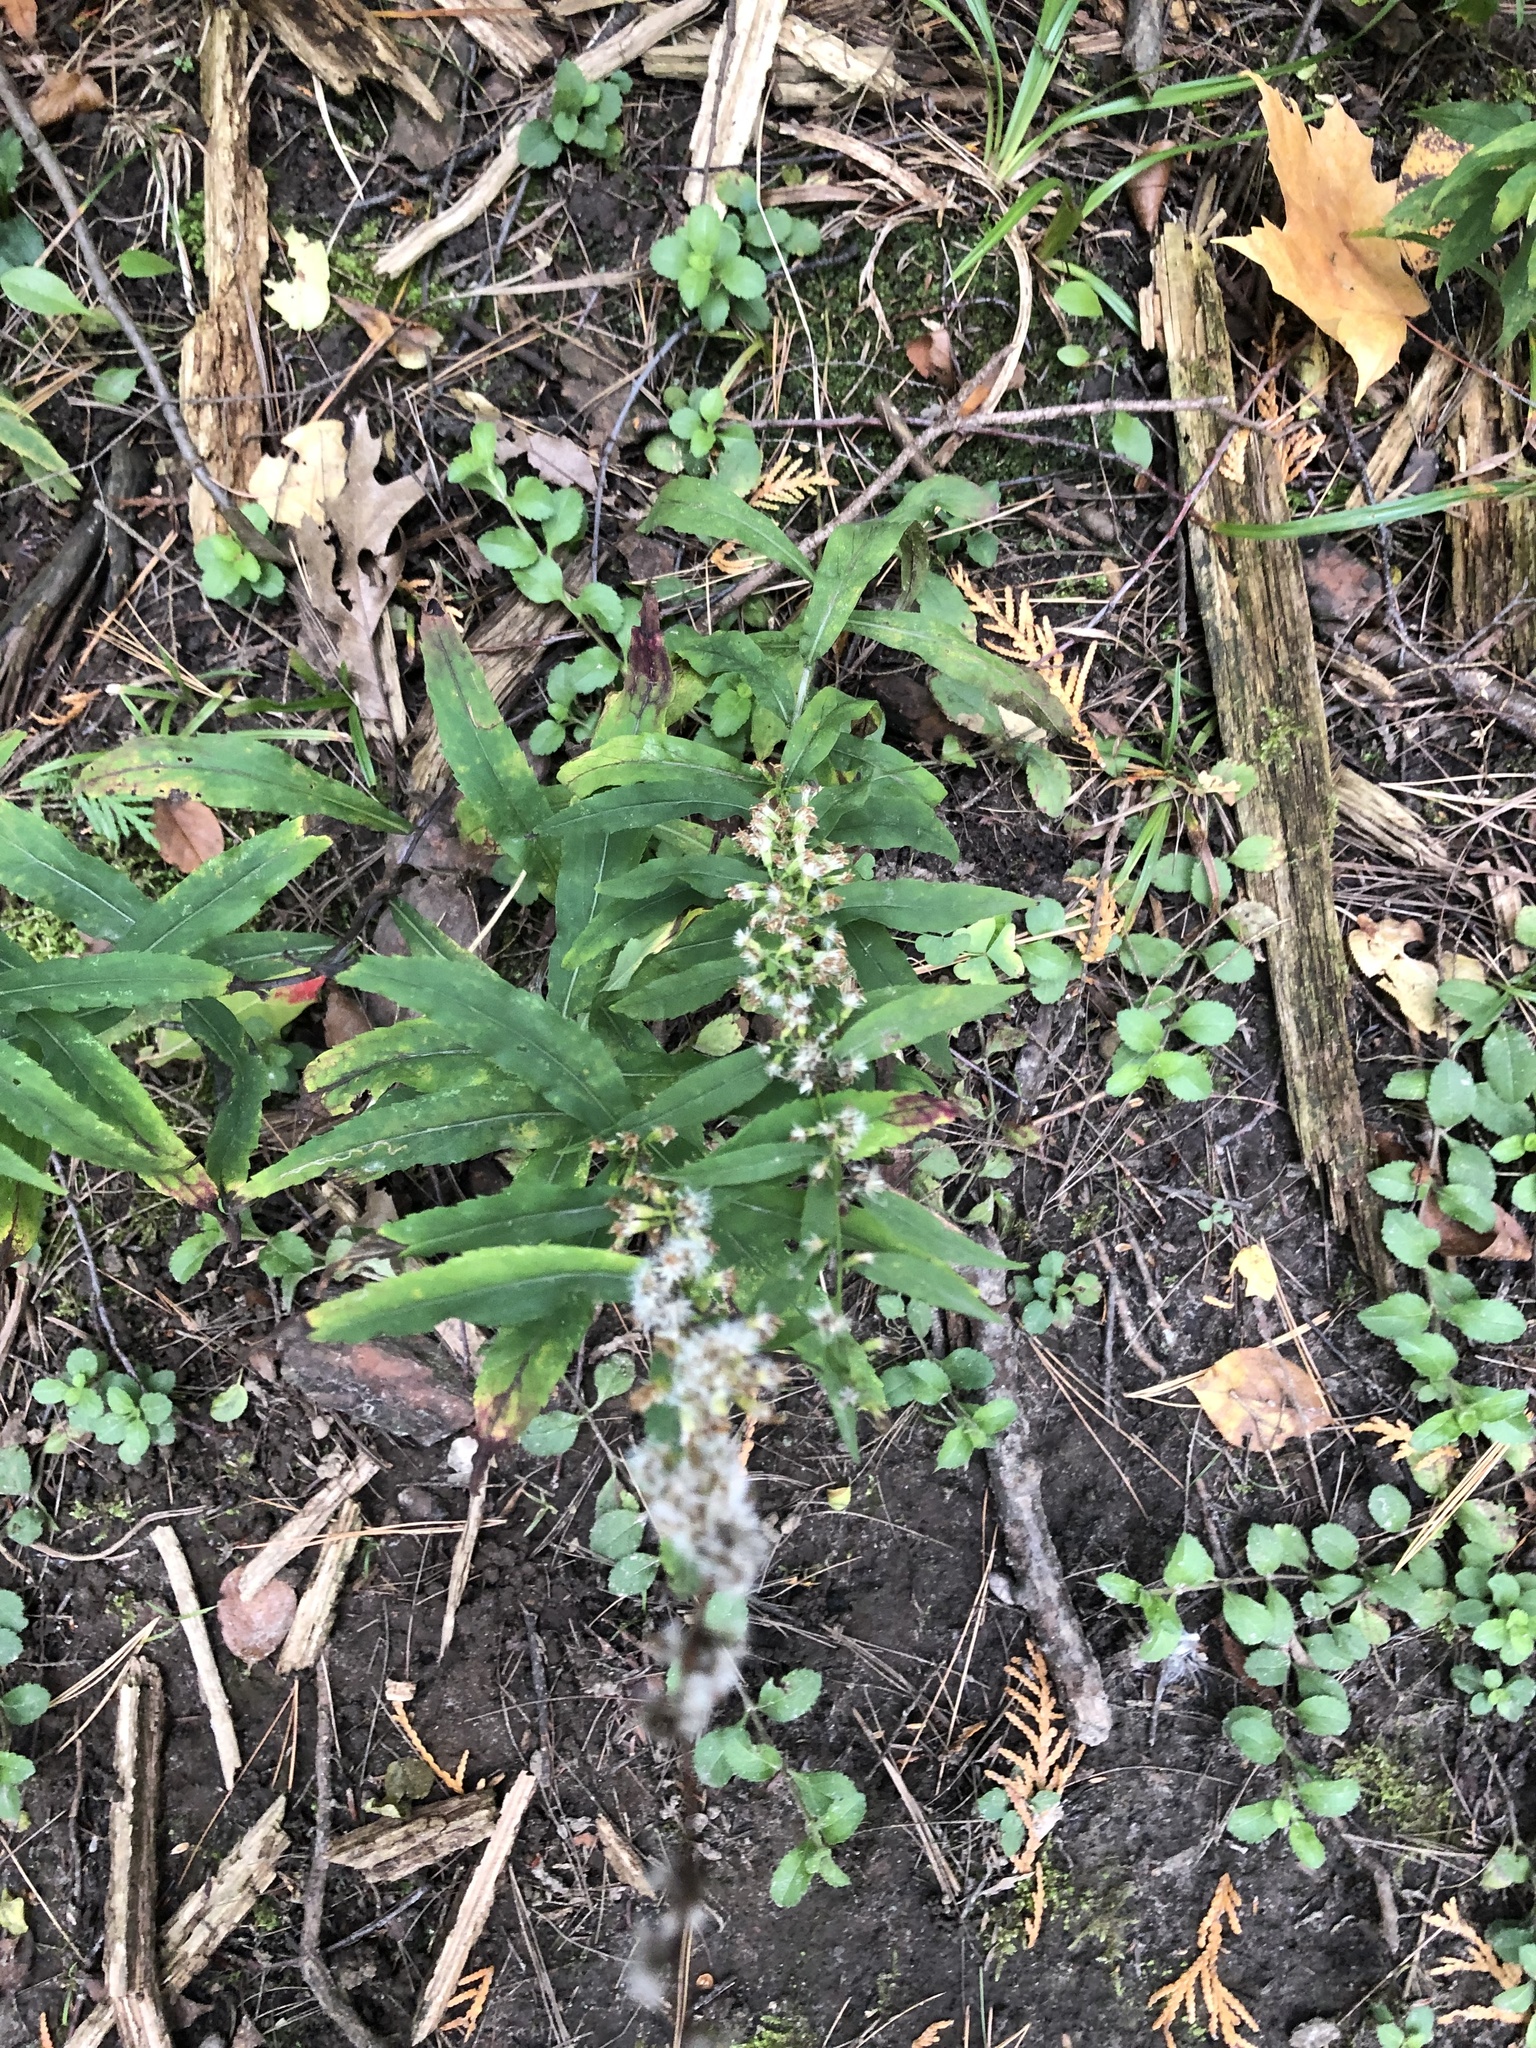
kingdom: Plantae
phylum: Tracheophyta
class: Magnoliopsida
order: Asterales
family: Asteraceae
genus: Solidago
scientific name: Solidago caesia
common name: Woodland goldenrod
